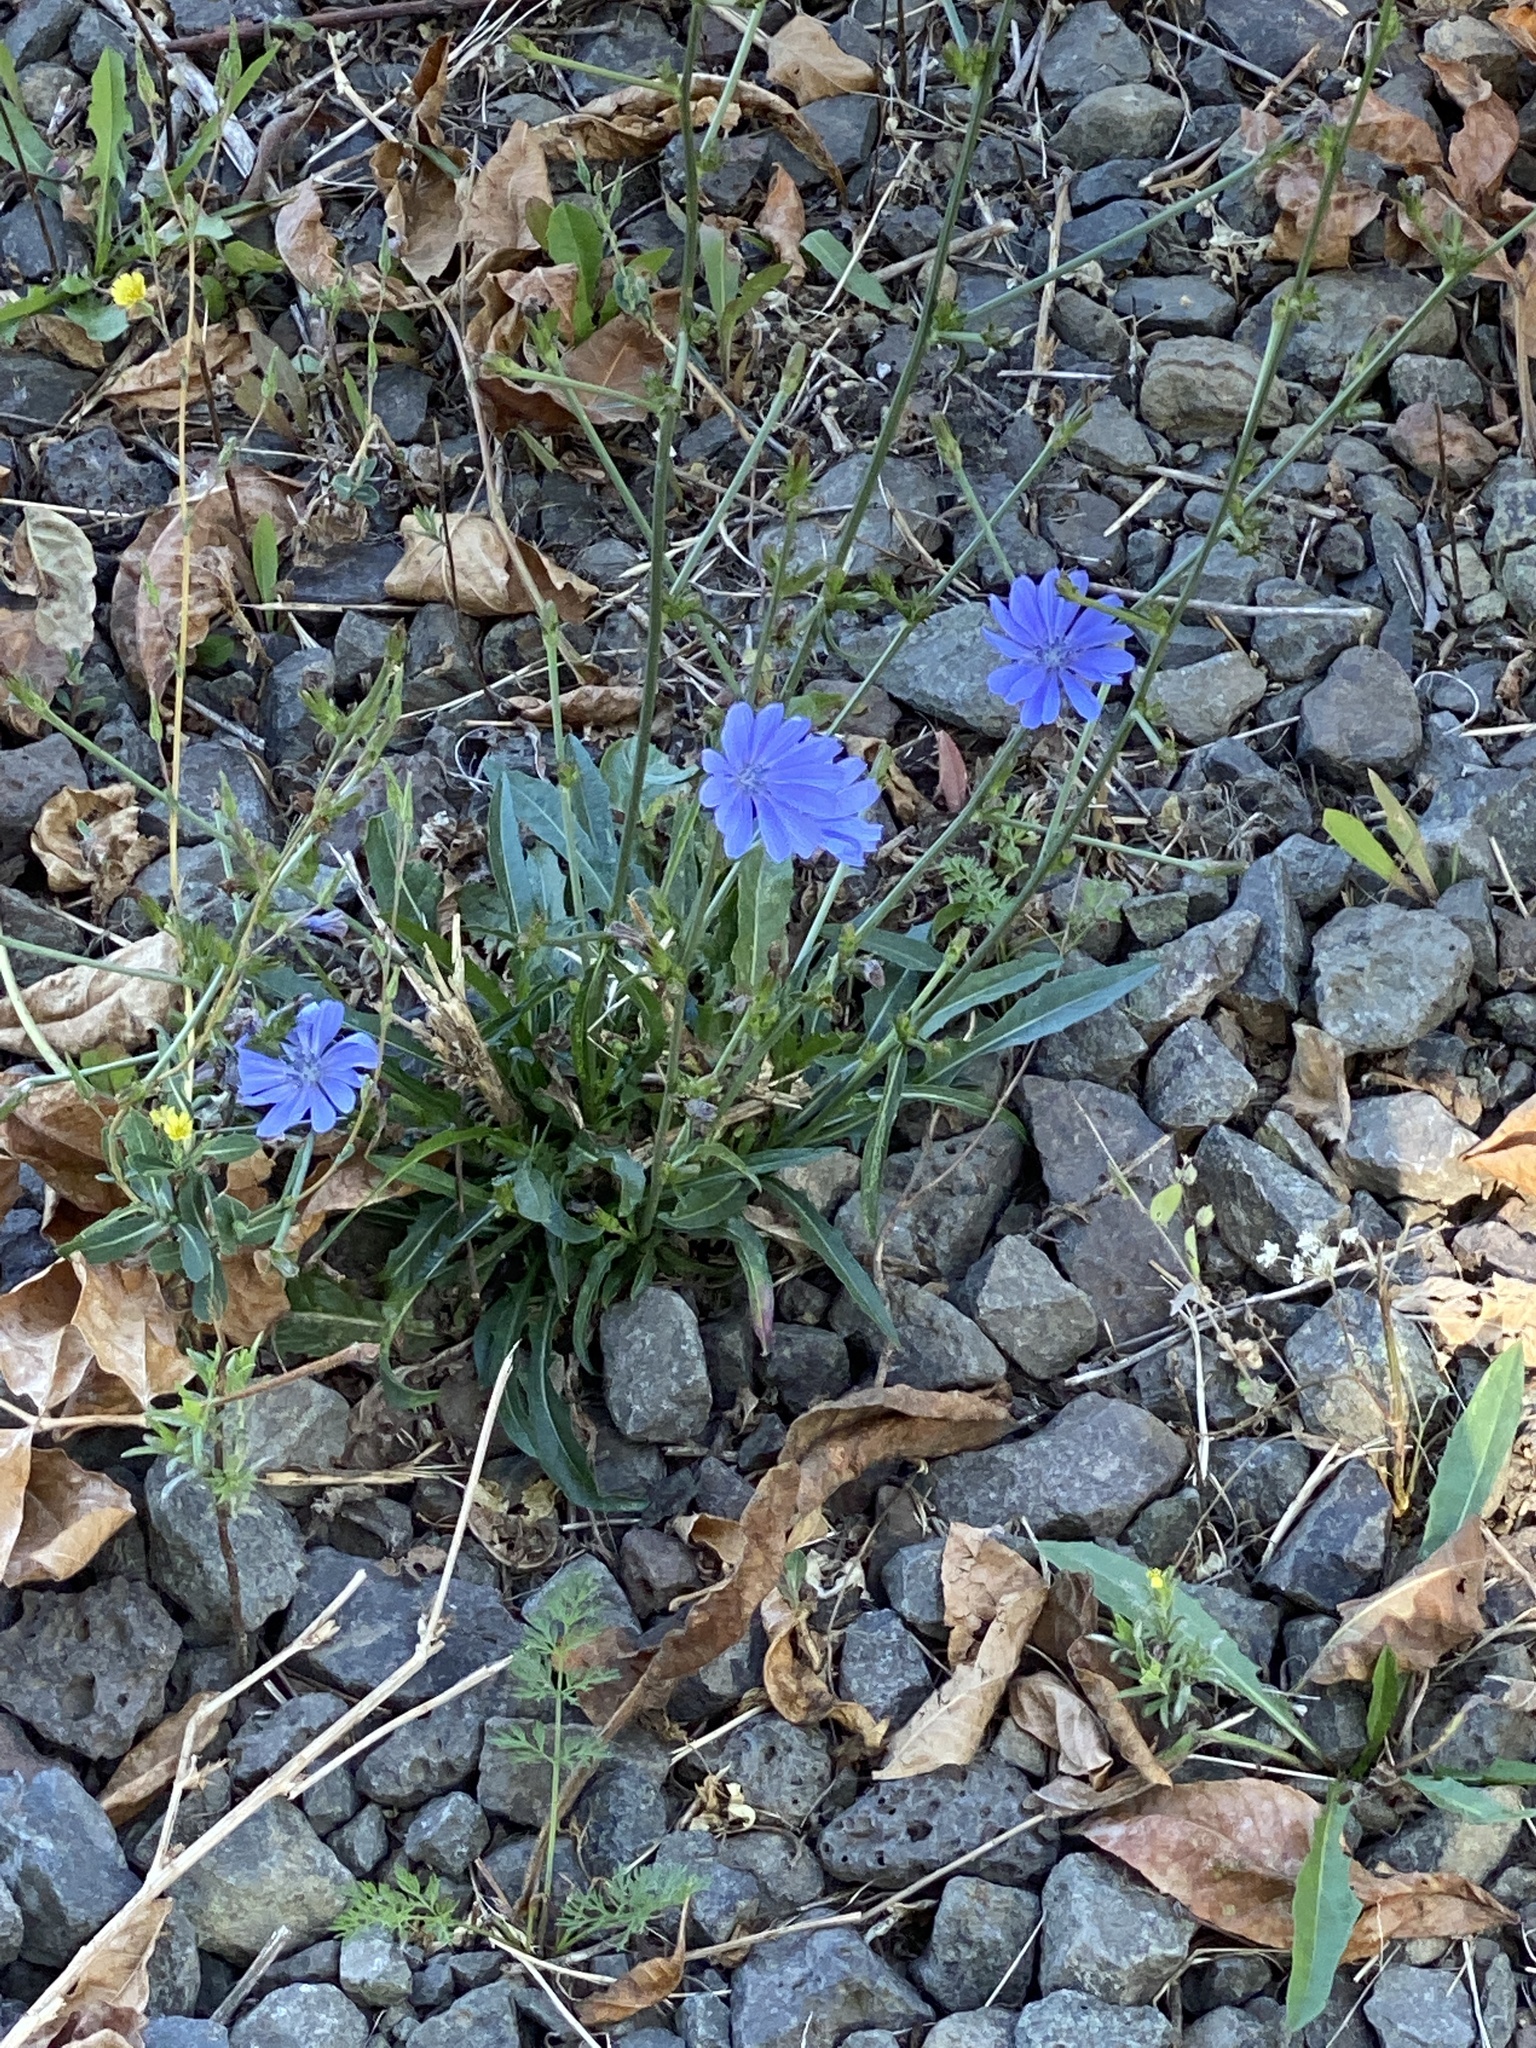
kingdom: Plantae
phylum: Tracheophyta
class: Magnoliopsida
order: Asterales
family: Asteraceae
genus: Cichorium
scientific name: Cichorium intybus
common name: Chicory
